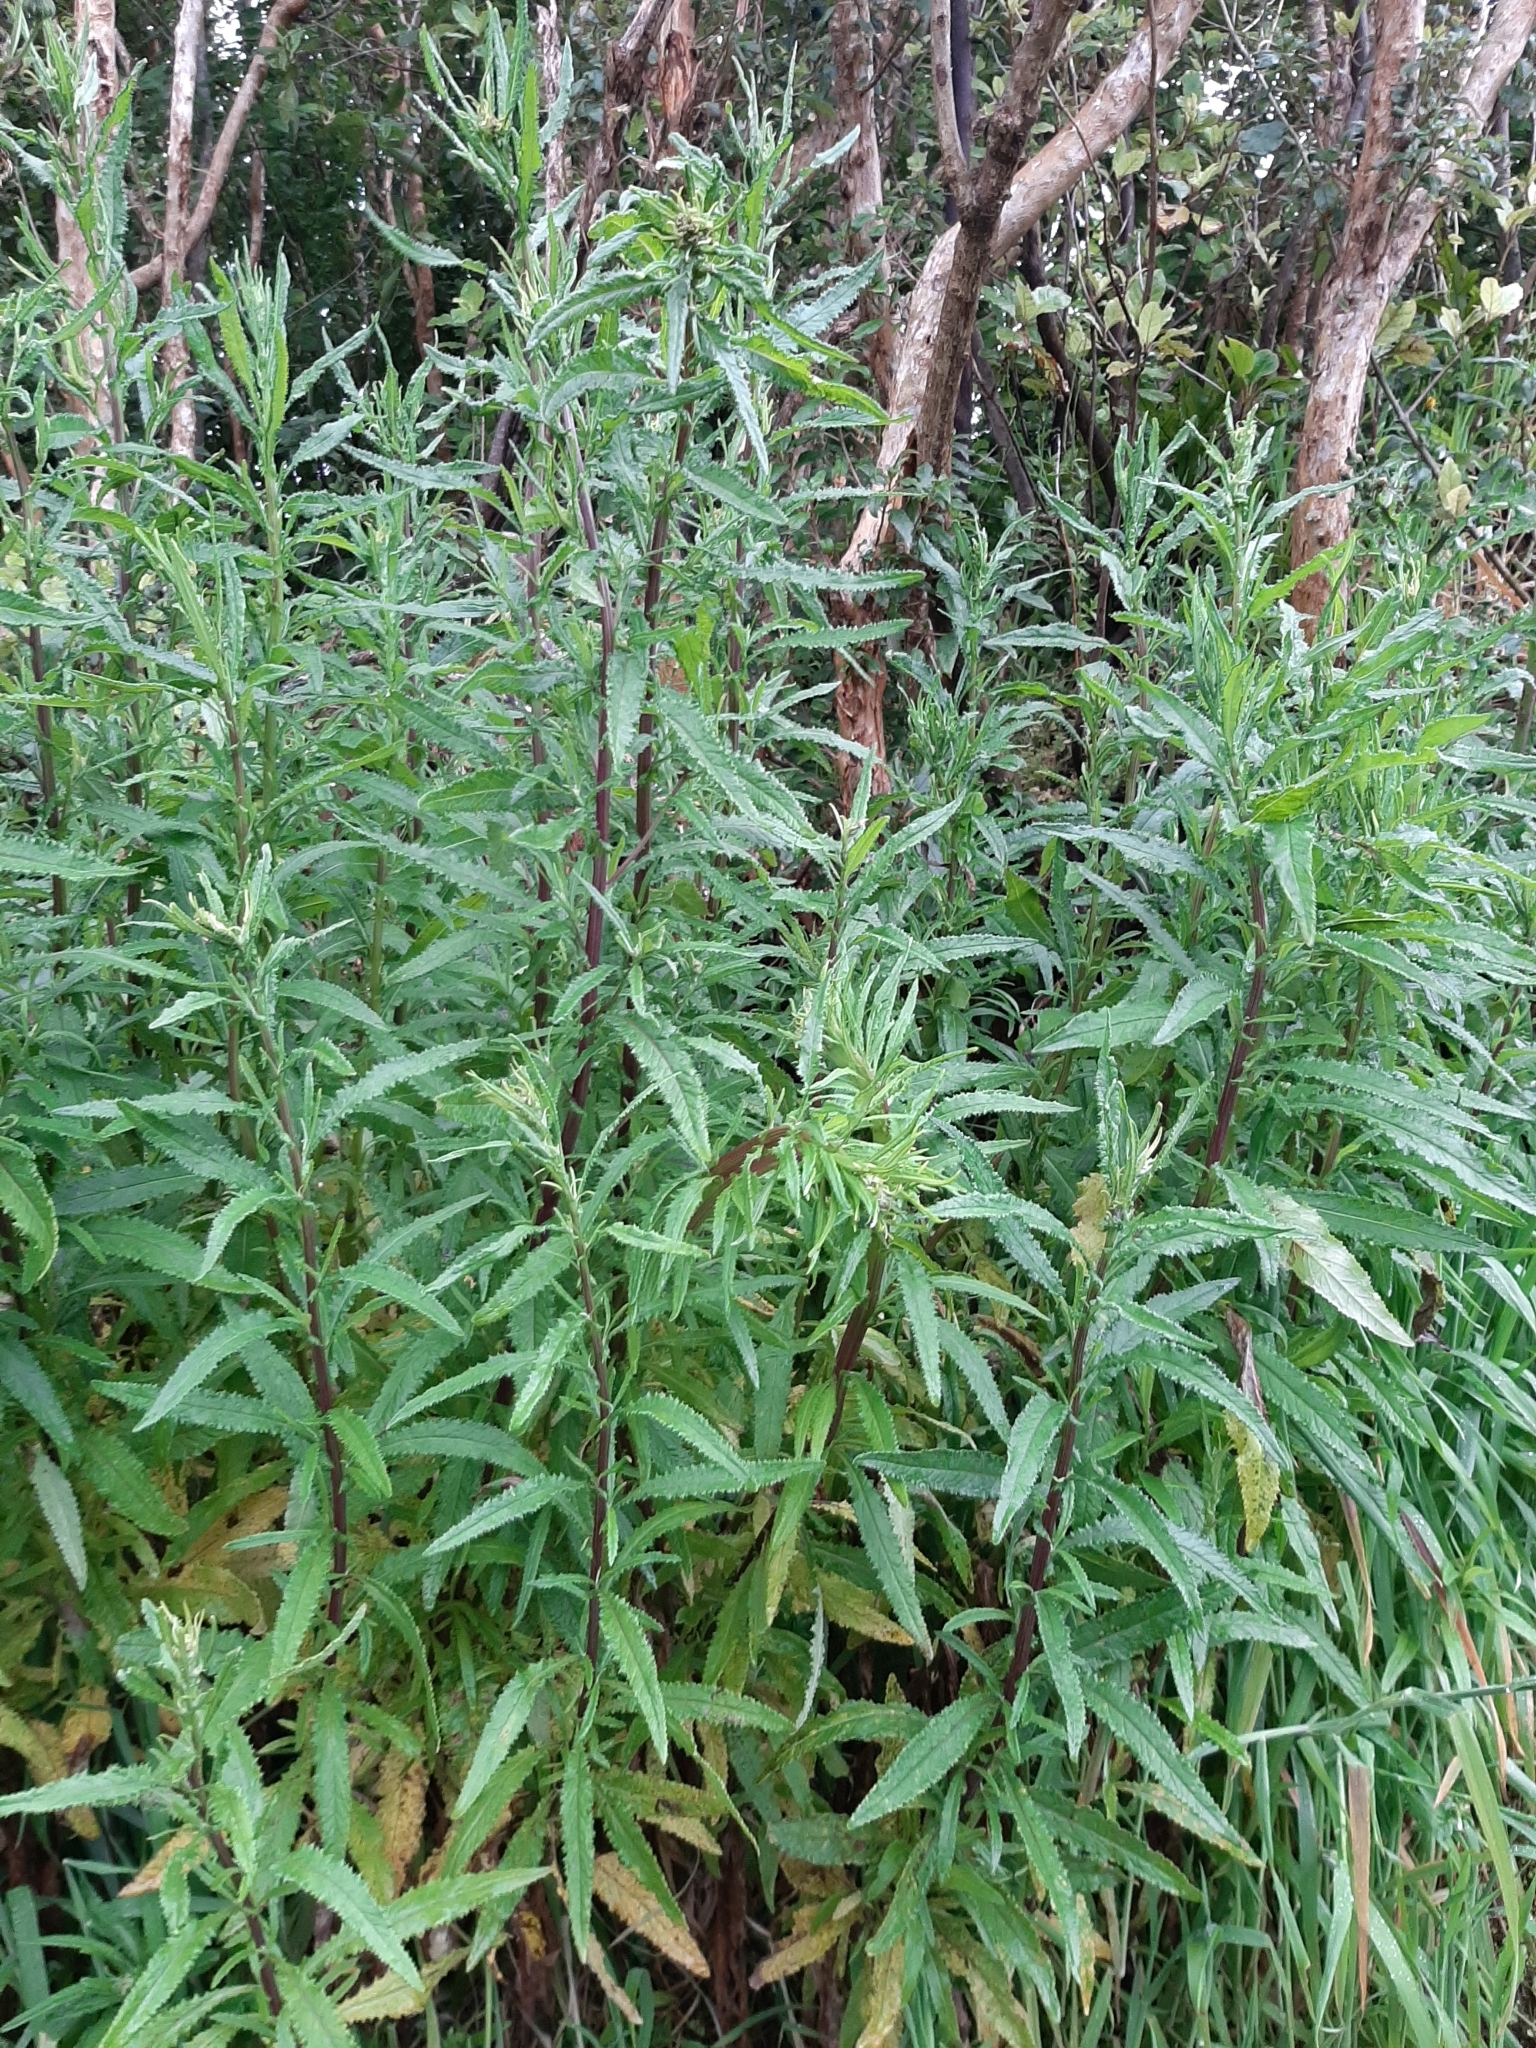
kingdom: Plantae
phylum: Tracheophyta
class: Magnoliopsida
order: Asterales
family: Asteraceae
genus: Senecio
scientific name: Senecio minimus
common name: Toothed fireweed
